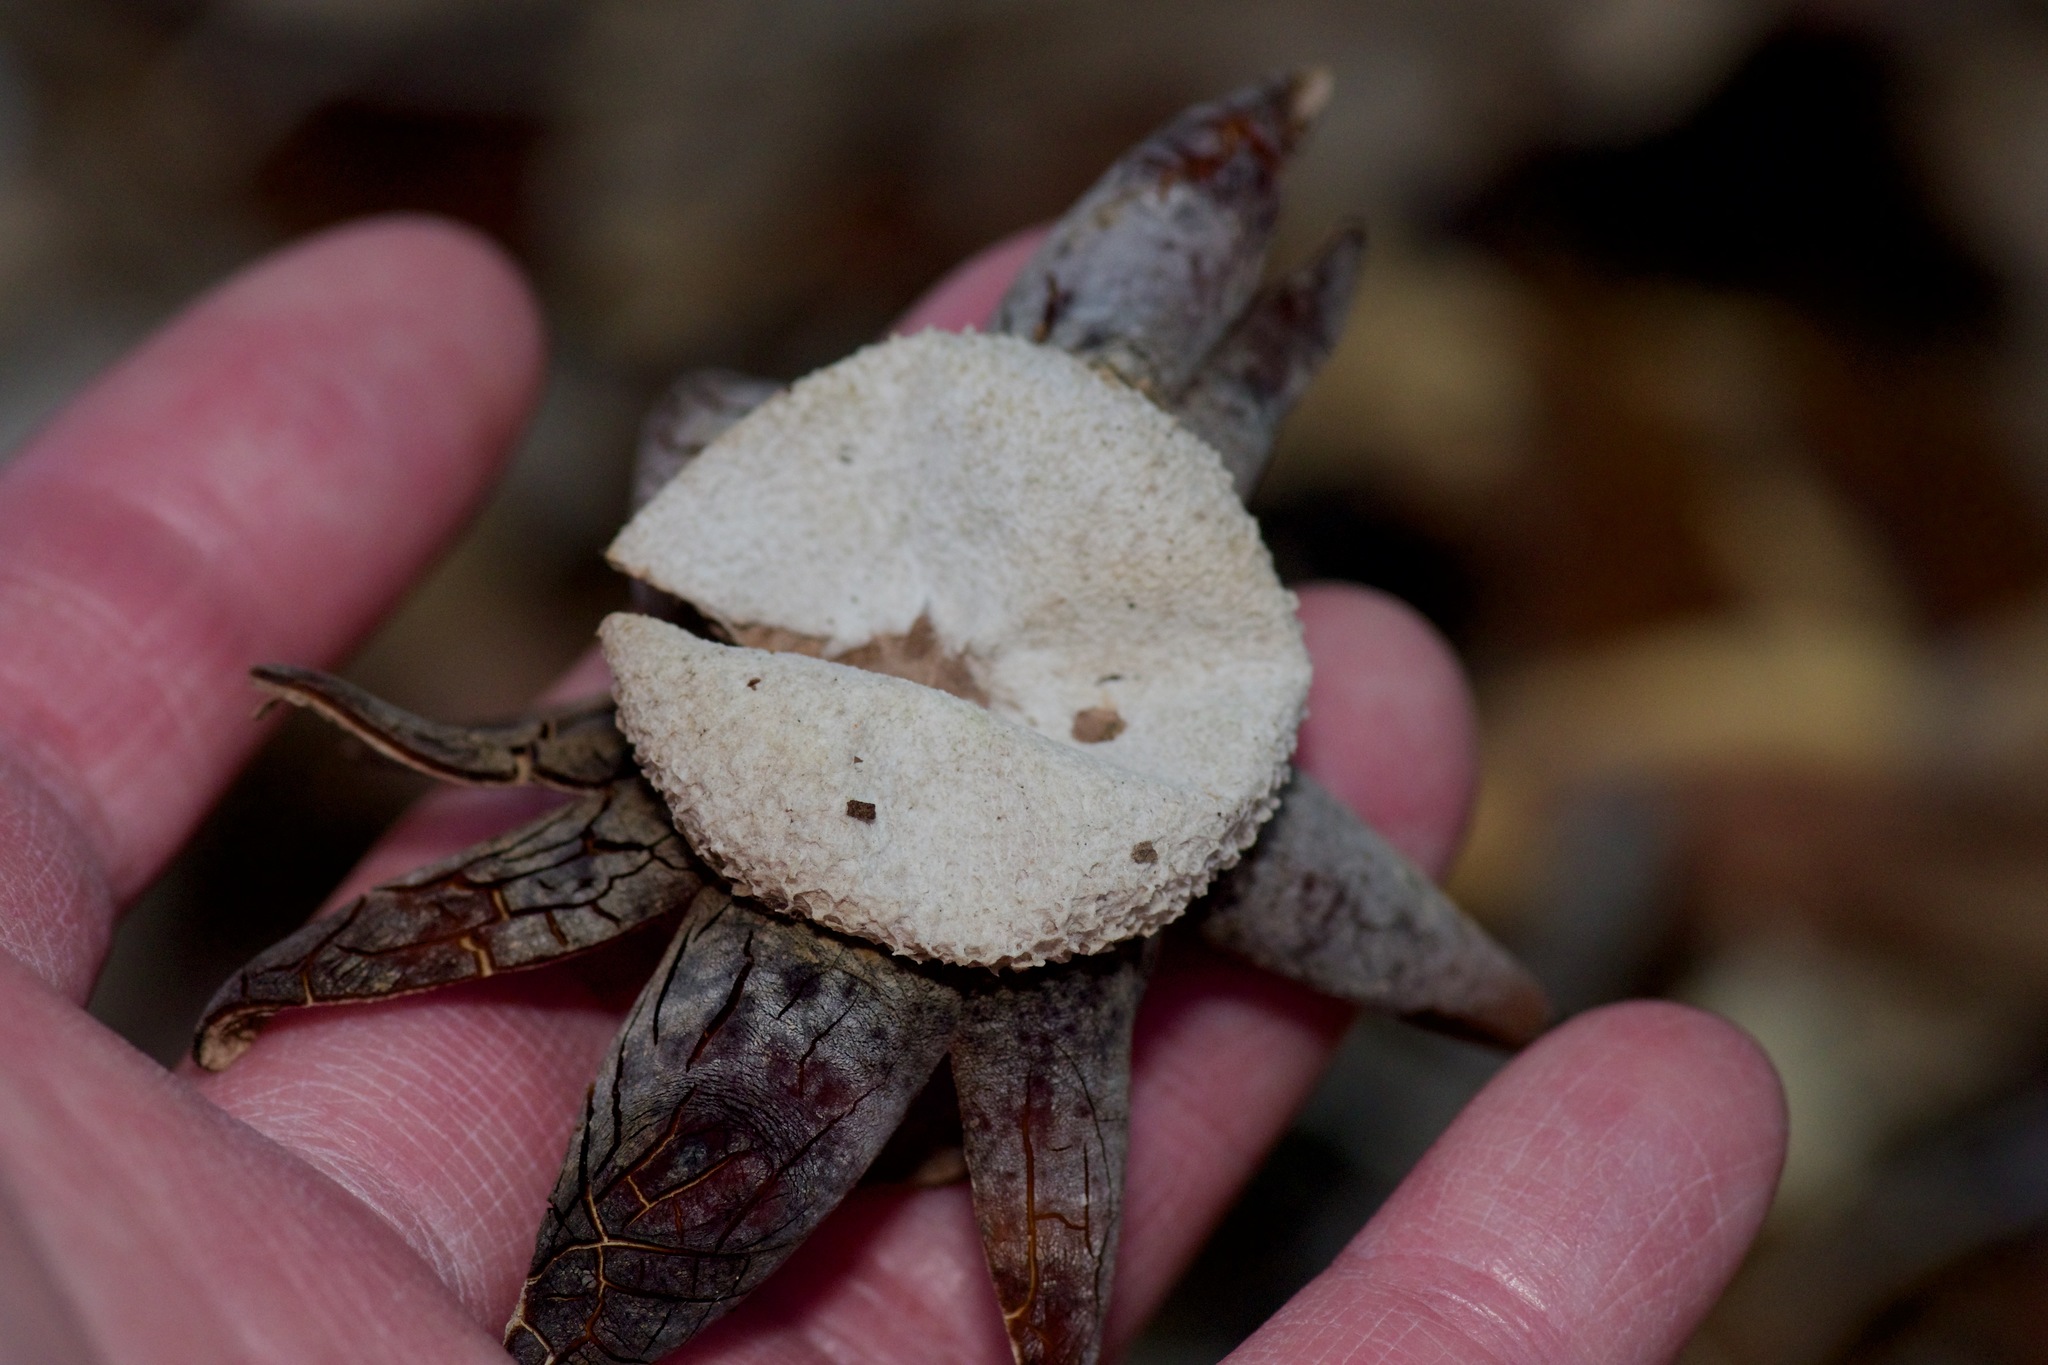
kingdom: Fungi
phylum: Basidiomycota
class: Agaricomycetes
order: Boletales
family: Diplocystidiaceae
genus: Astraeus
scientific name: Astraeus morganii
